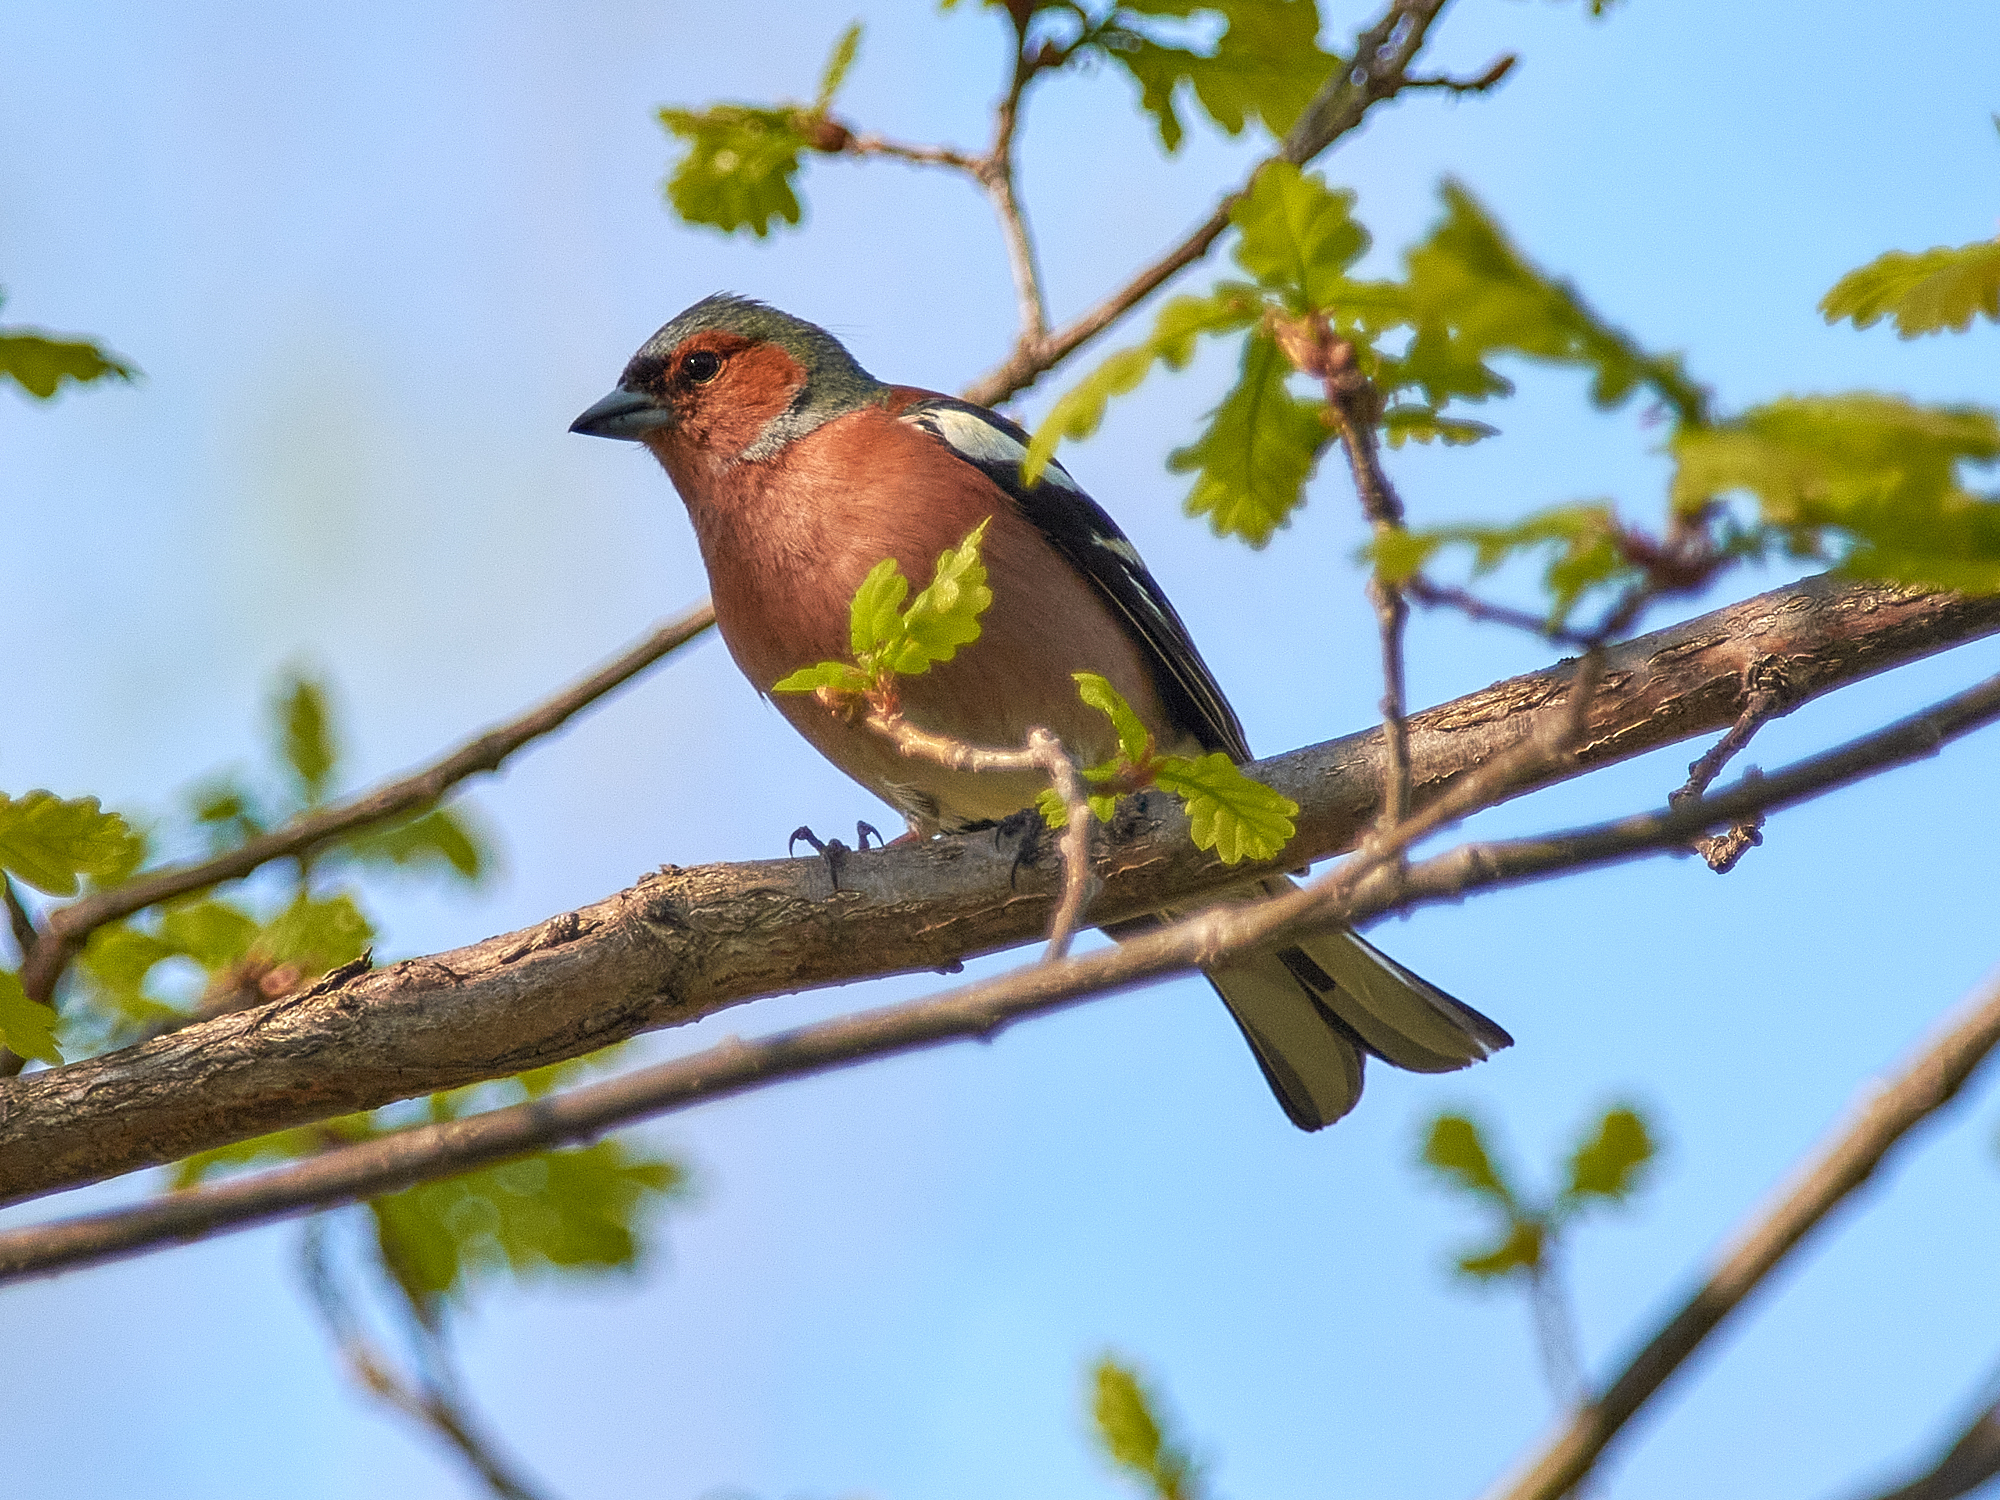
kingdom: Animalia
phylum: Chordata
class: Aves
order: Passeriformes
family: Fringillidae
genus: Fringilla
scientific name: Fringilla coelebs
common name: Common chaffinch
